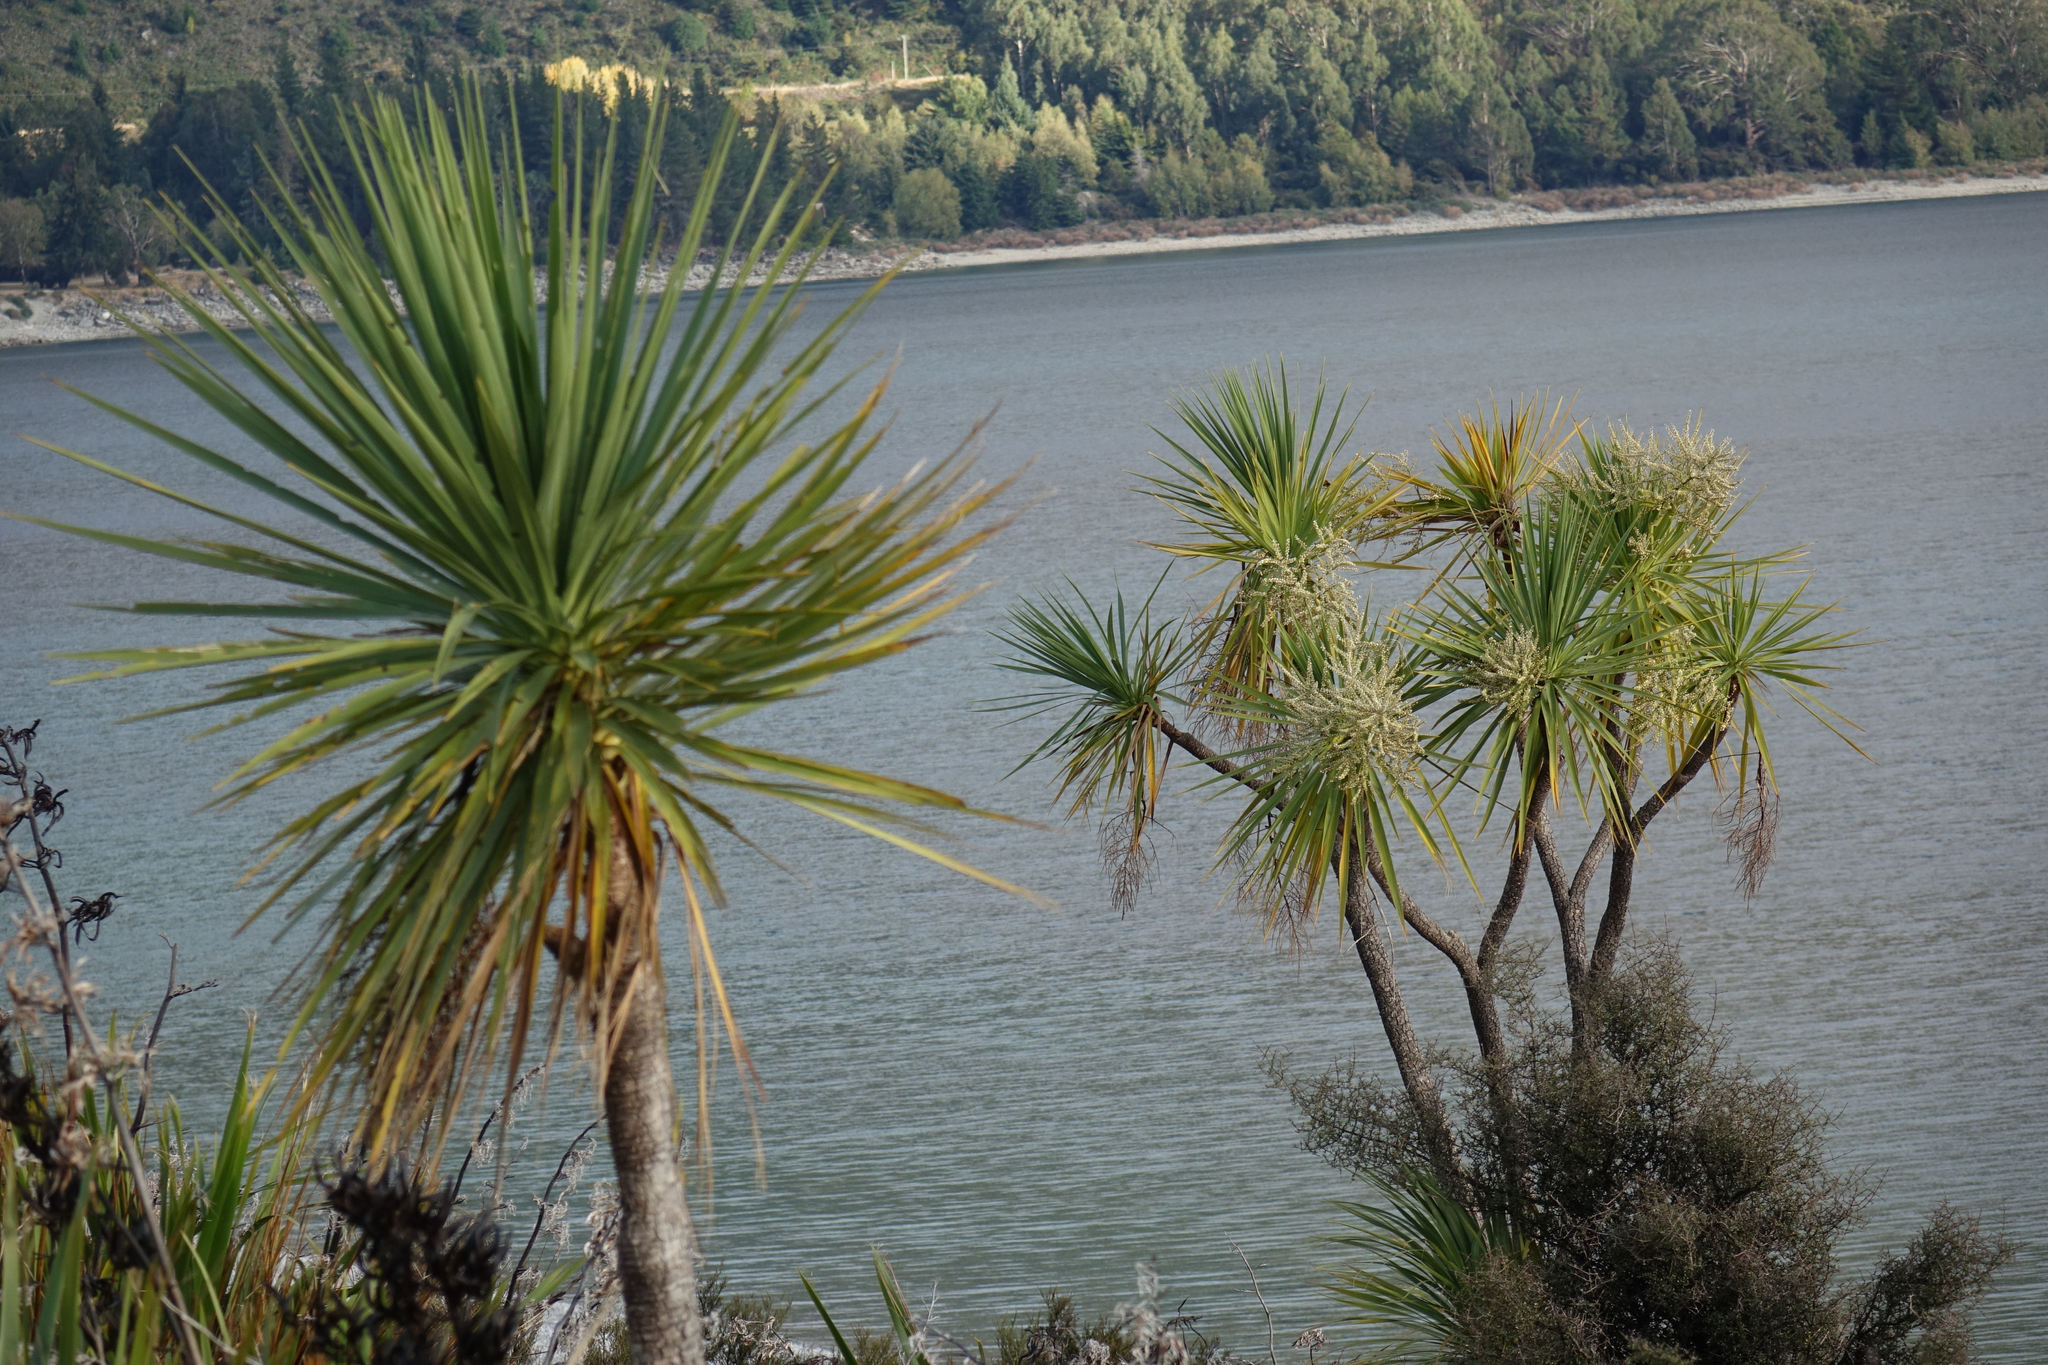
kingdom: Plantae
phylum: Tracheophyta
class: Liliopsida
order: Asparagales
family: Asparagaceae
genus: Cordyline
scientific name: Cordyline australis
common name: Cabbage-palm
